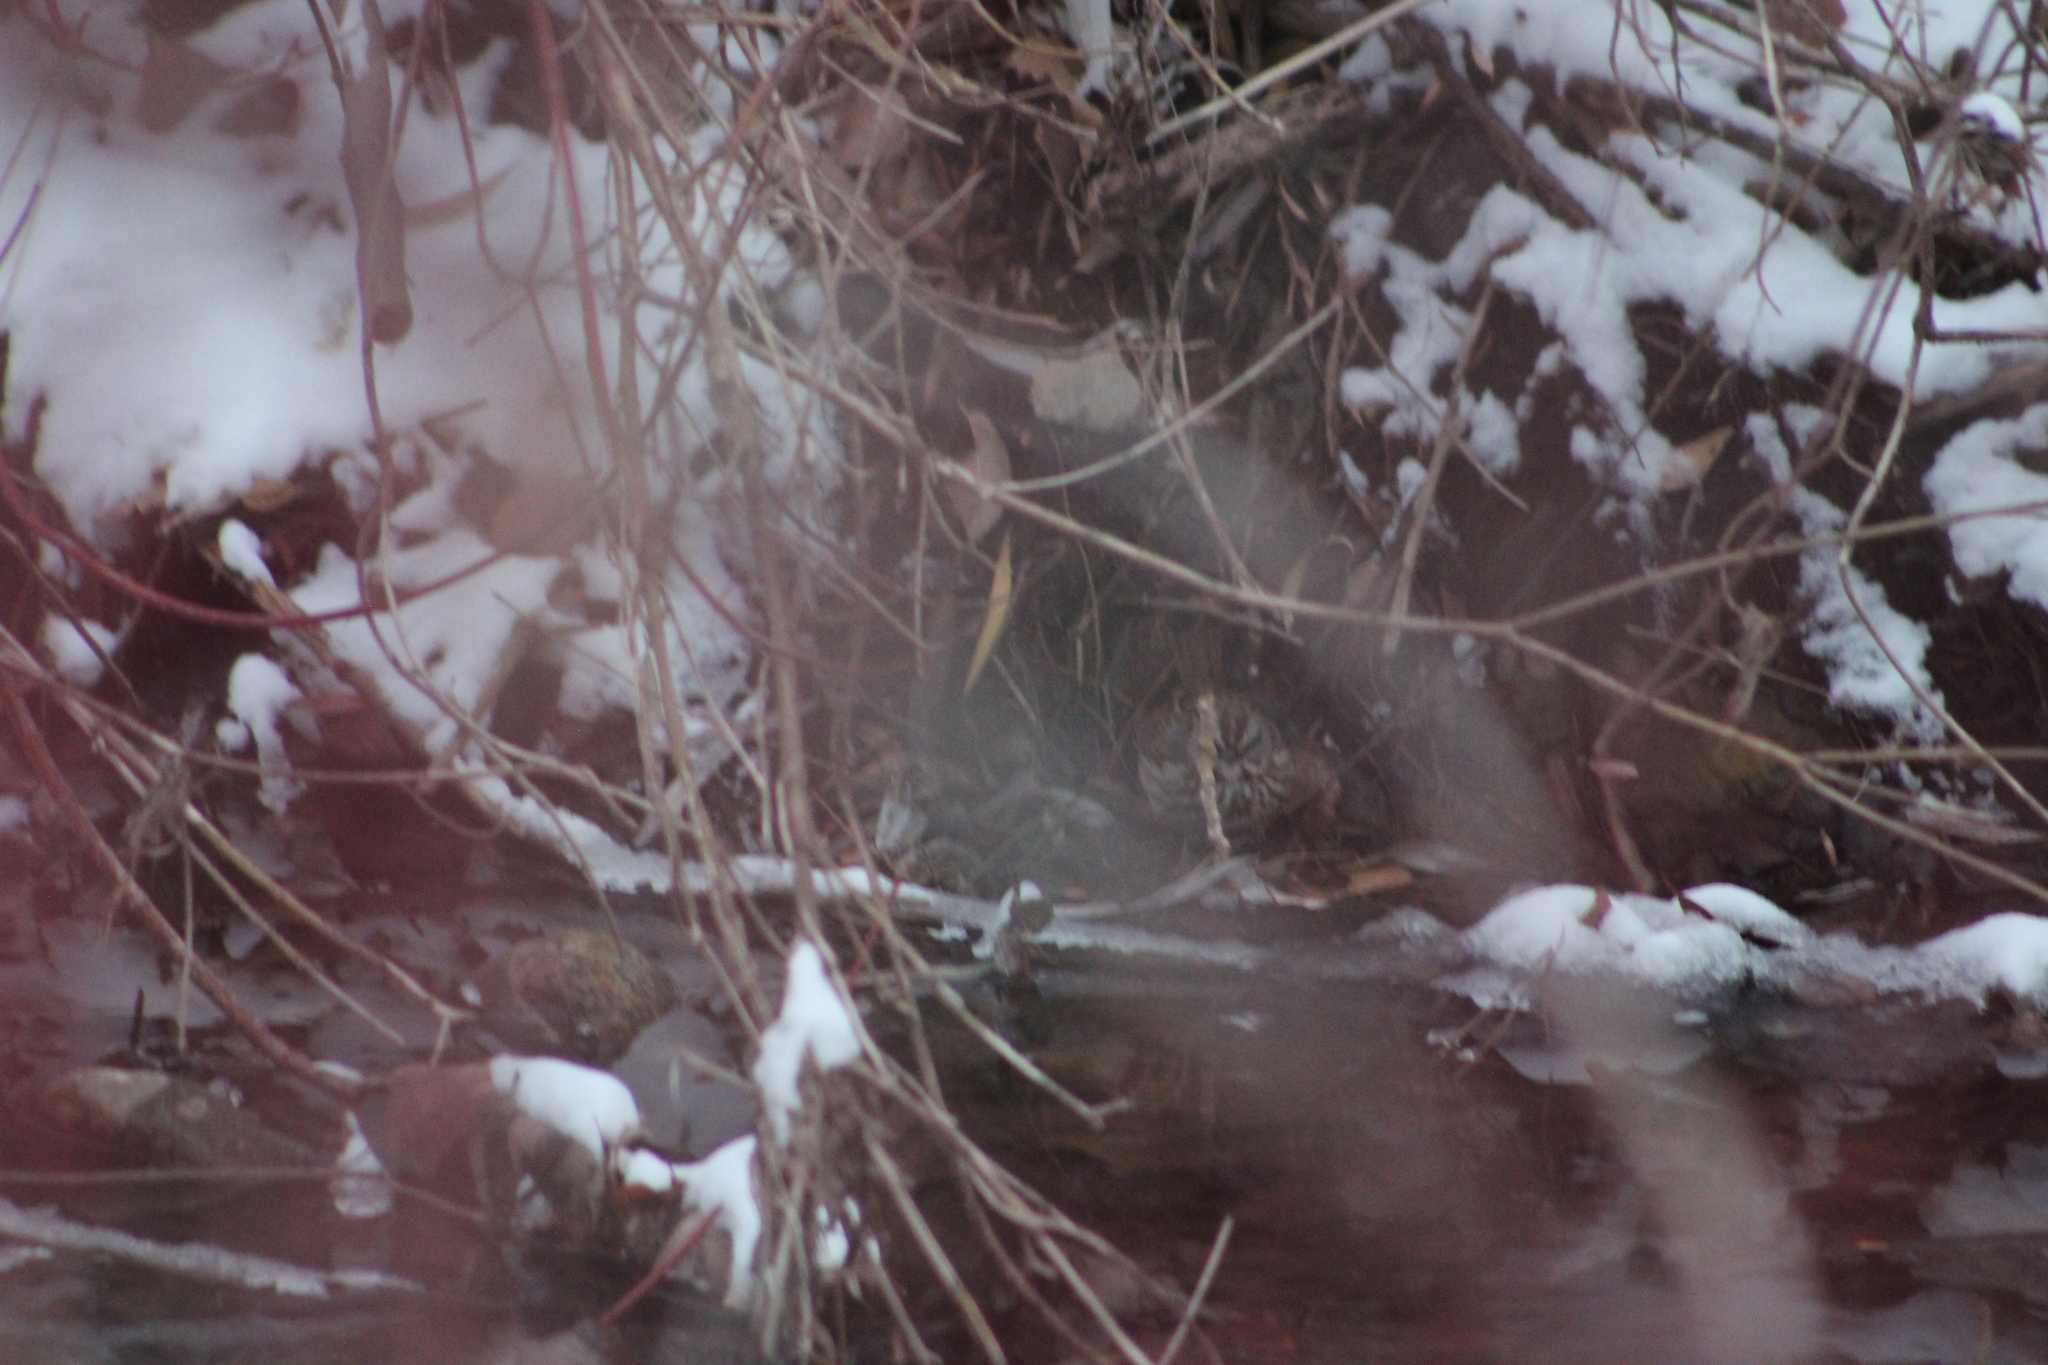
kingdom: Animalia
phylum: Chordata
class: Aves
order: Passeriformes
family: Passerellidae
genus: Melospiza
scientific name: Melospiza melodia
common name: Song sparrow
